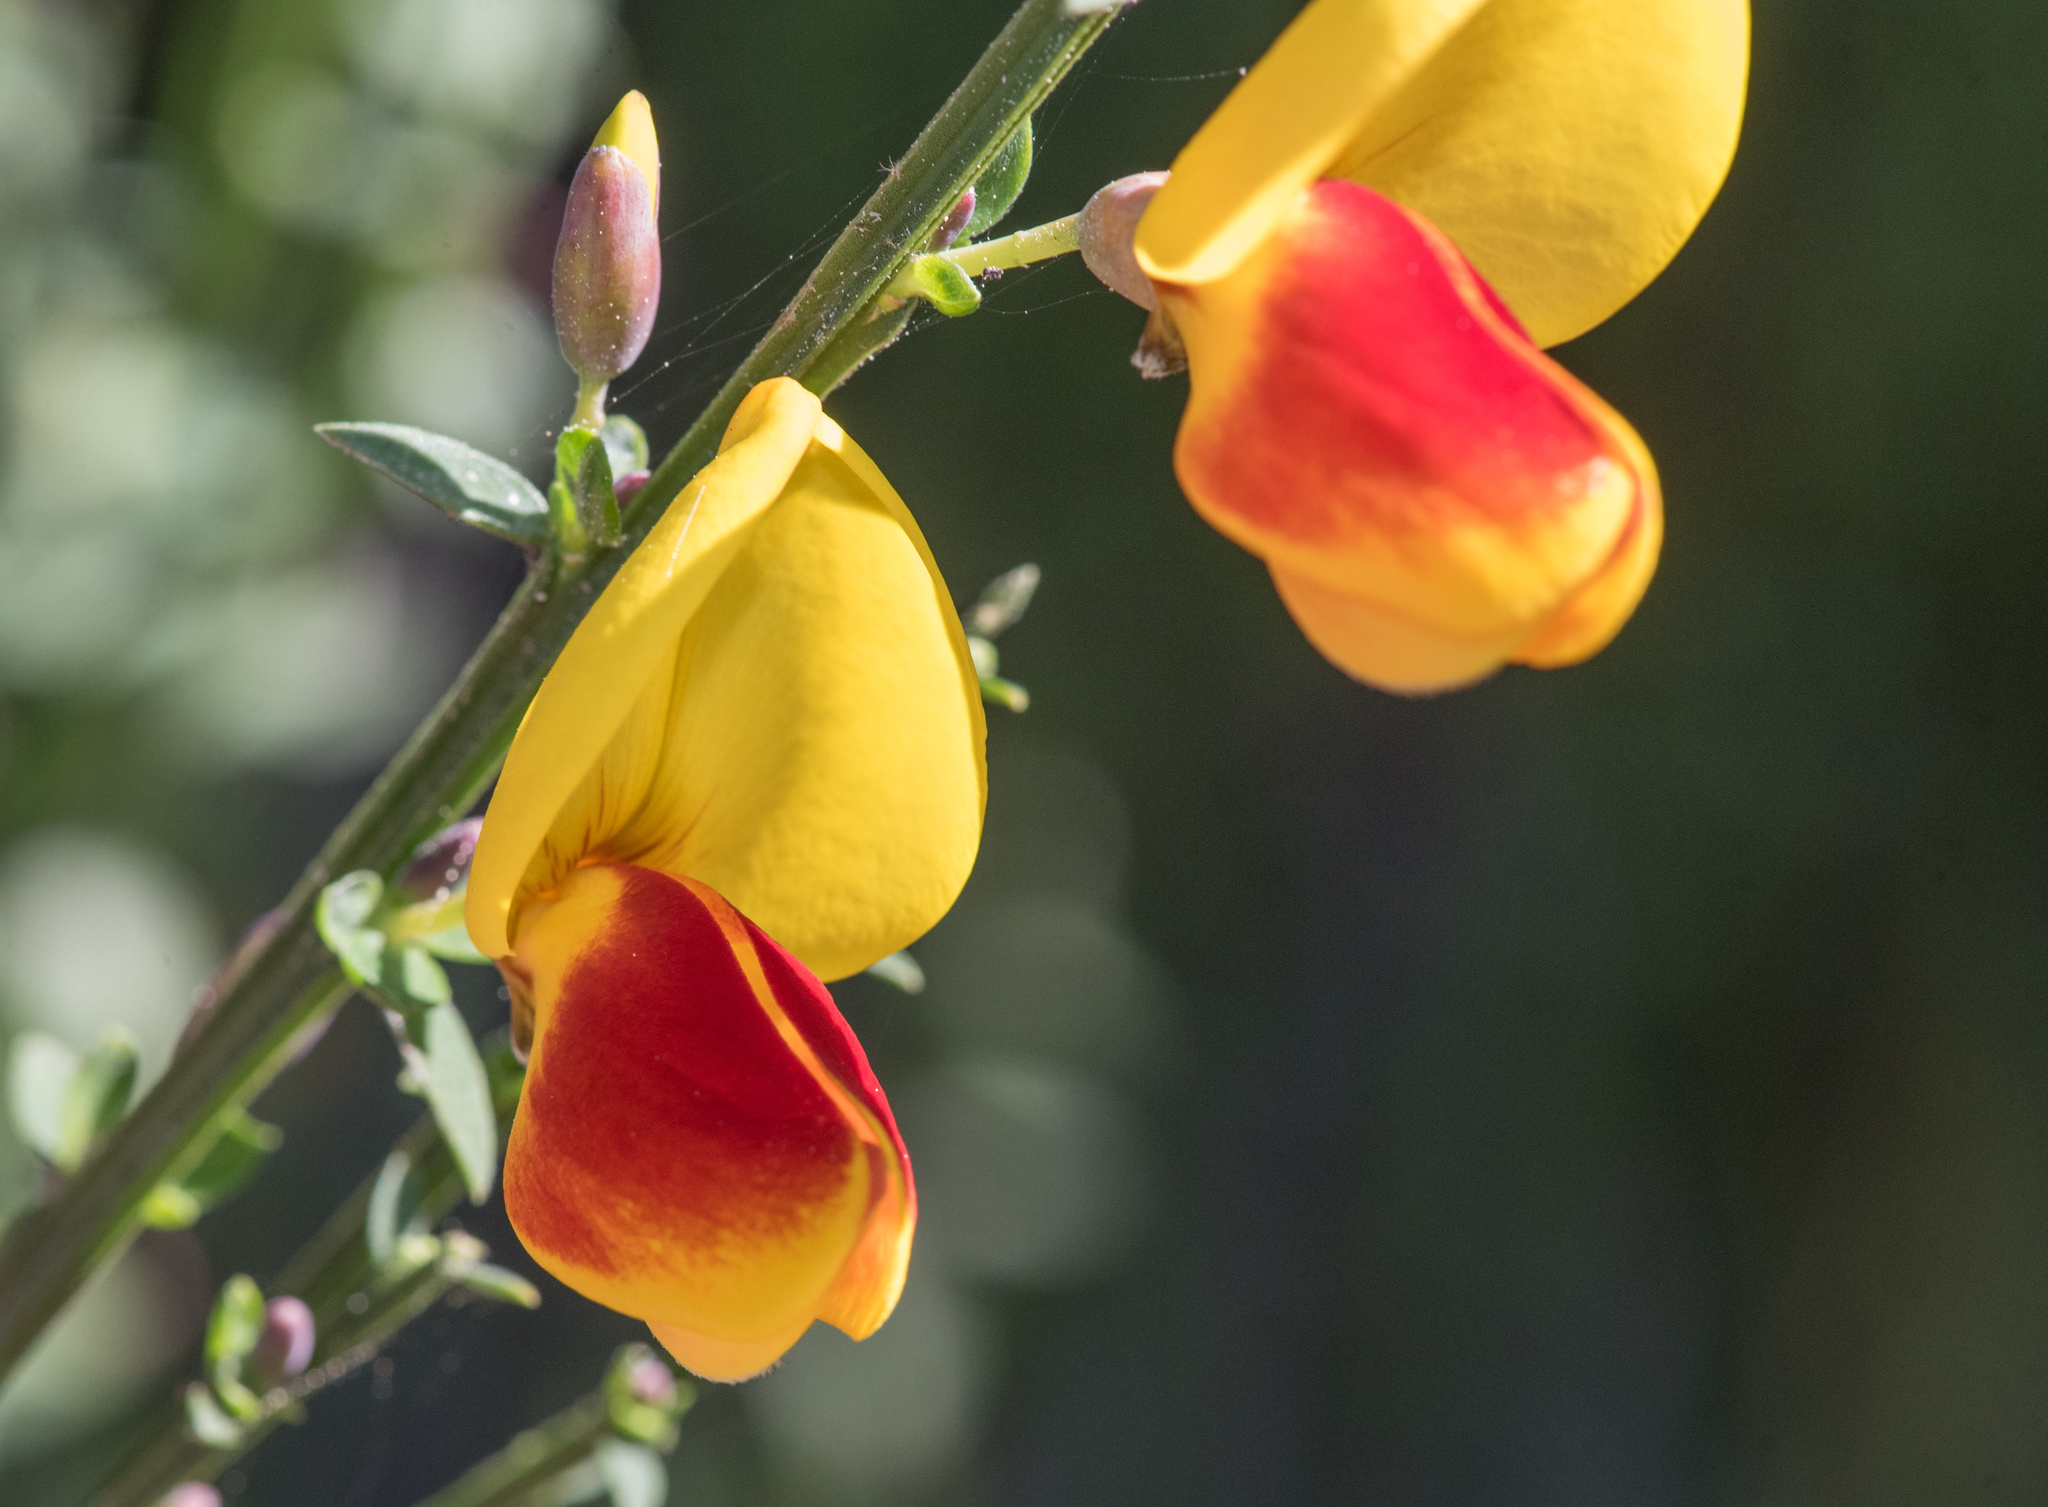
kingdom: Plantae
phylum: Tracheophyta
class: Magnoliopsida
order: Fabales
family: Fabaceae
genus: Cytisus
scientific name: Cytisus scoparius
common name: Scotch broom
